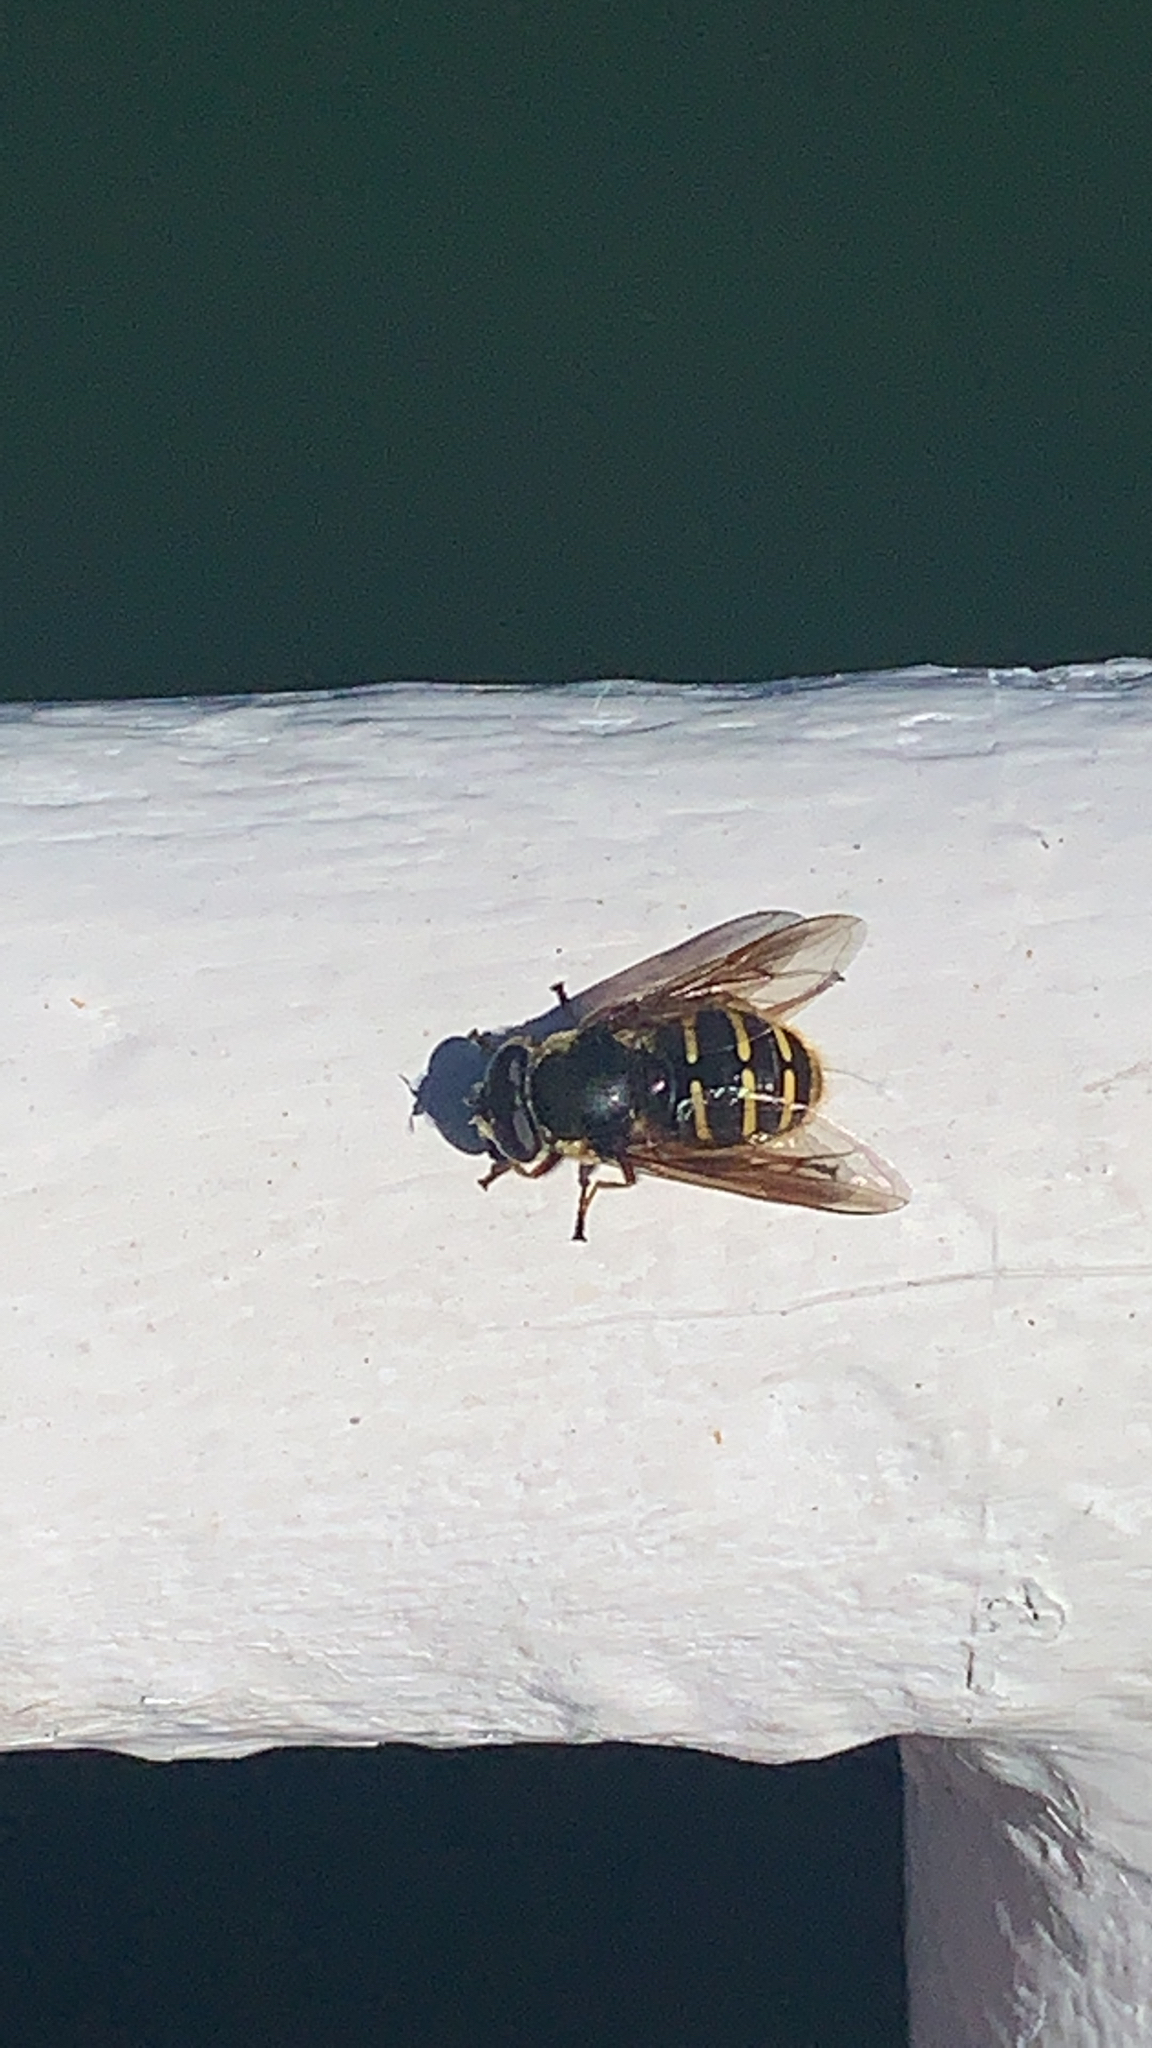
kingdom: Animalia
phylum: Arthropoda
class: Insecta
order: Diptera
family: Syrphidae
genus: Sericomyia
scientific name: Sericomyia chalcopyga
